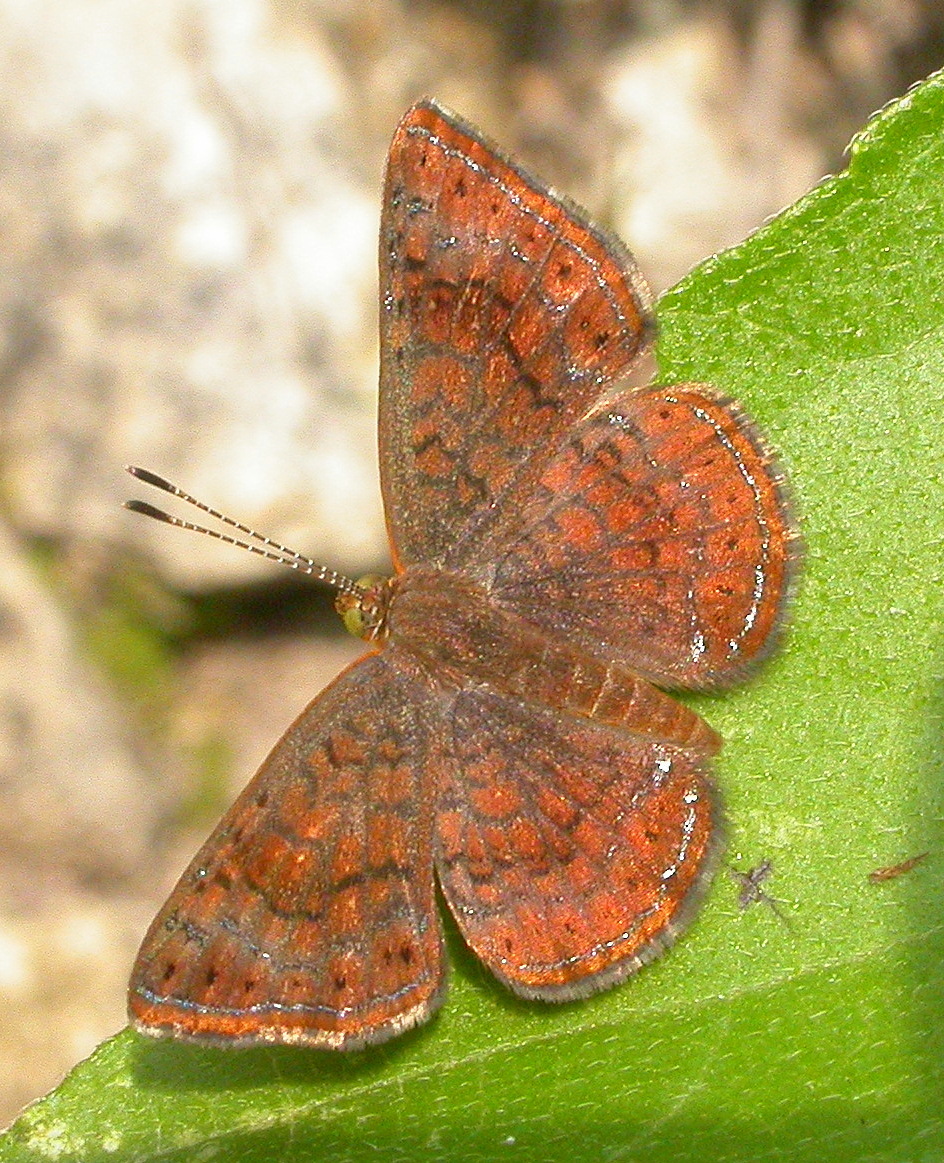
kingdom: Animalia
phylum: Arthropoda
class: Insecta
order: Lepidoptera
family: Lycaenidae
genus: Emesis
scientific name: Emesis rawsoni
